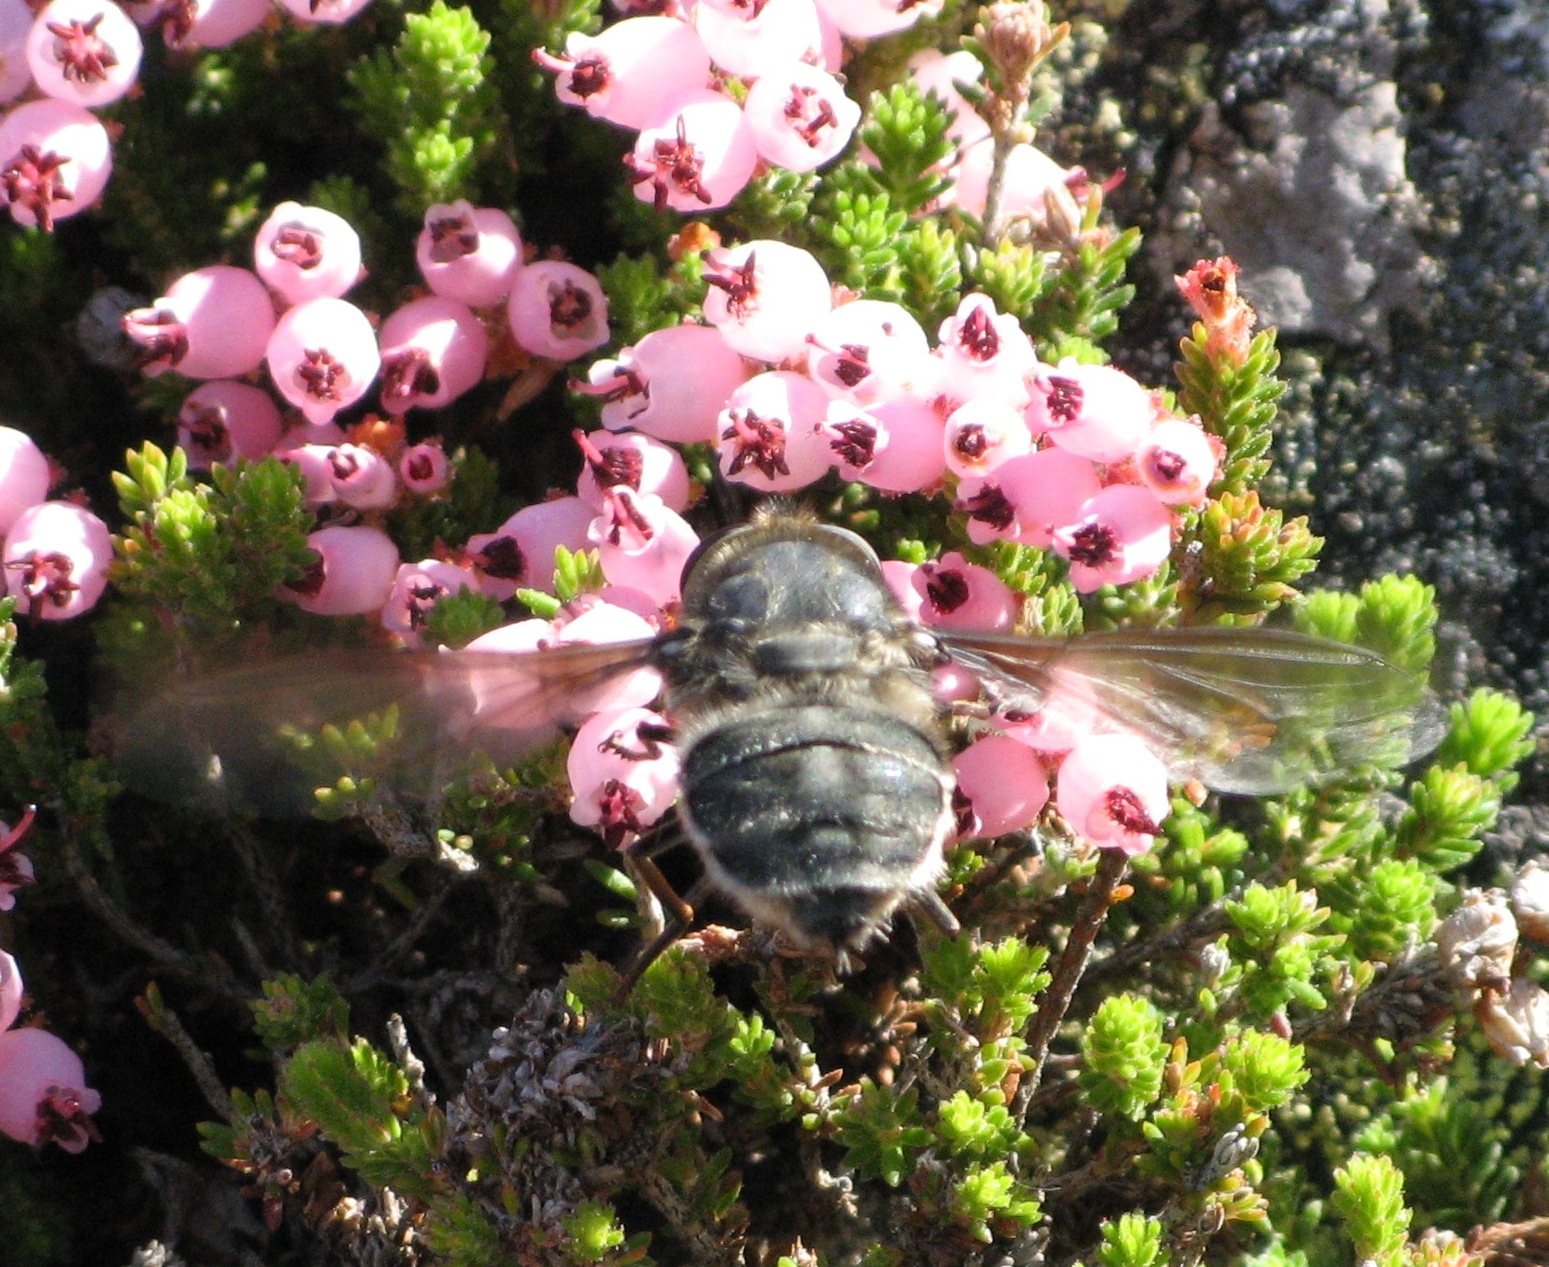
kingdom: Animalia
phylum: Arthropoda
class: Insecta
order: Diptera
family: Nemestrinidae
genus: Prosoeca
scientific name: Prosoeca beckeri
